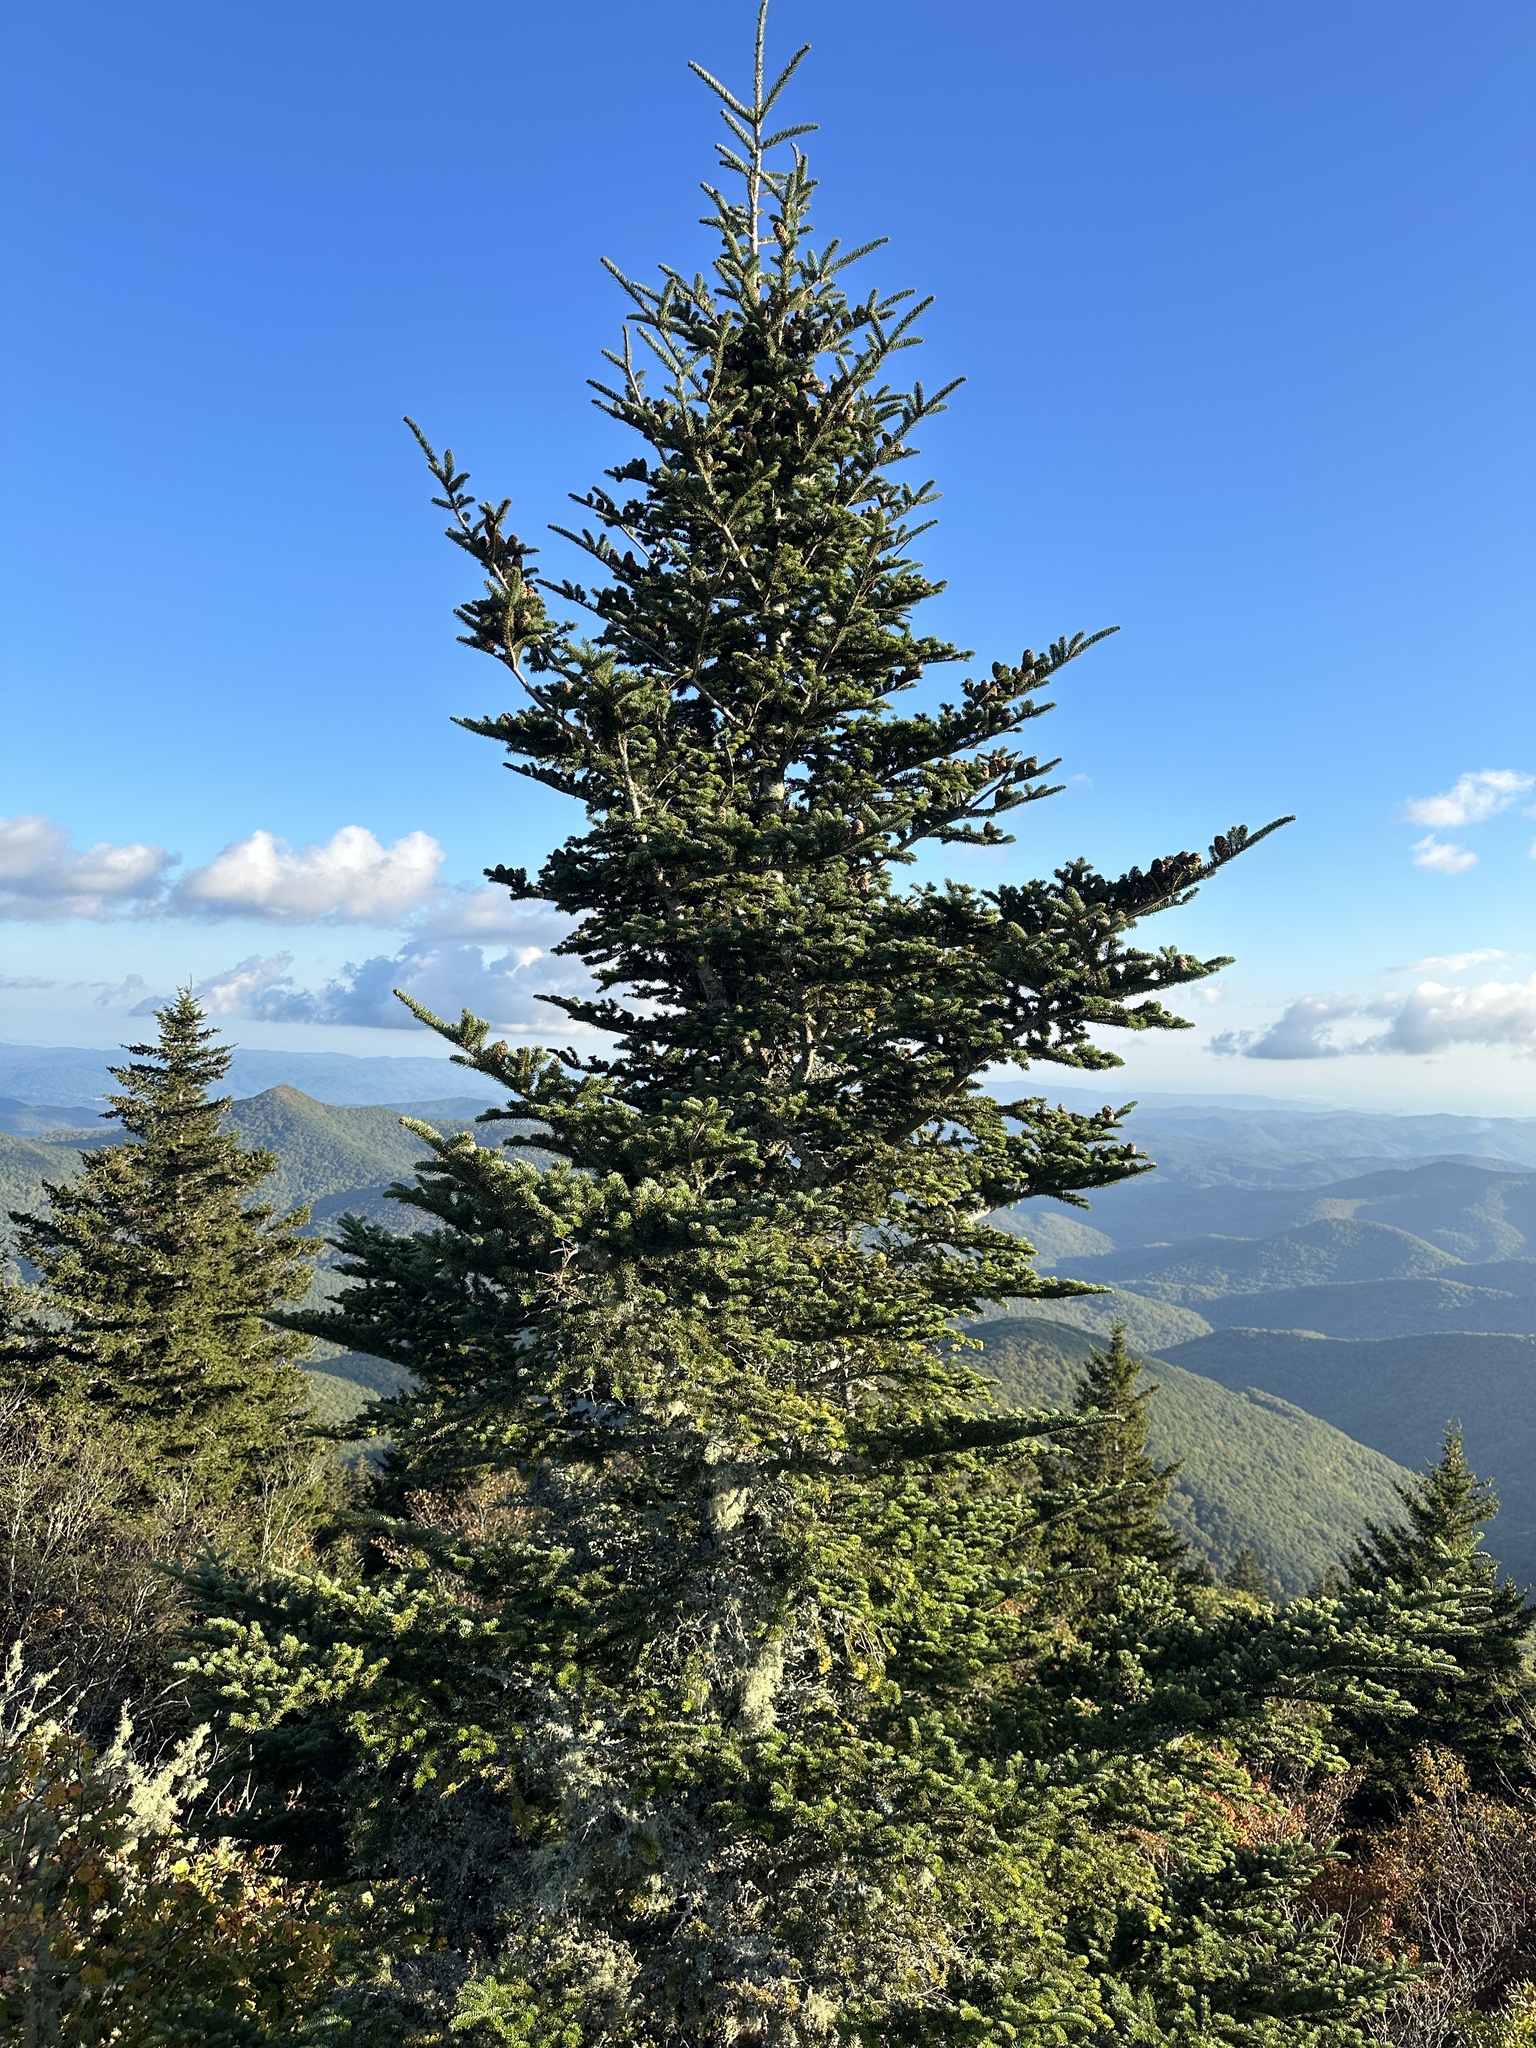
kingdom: Plantae
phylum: Tracheophyta
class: Pinopsida
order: Pinales
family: Pinaceae
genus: Abies
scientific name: Abies fraseri
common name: Fraser fir
